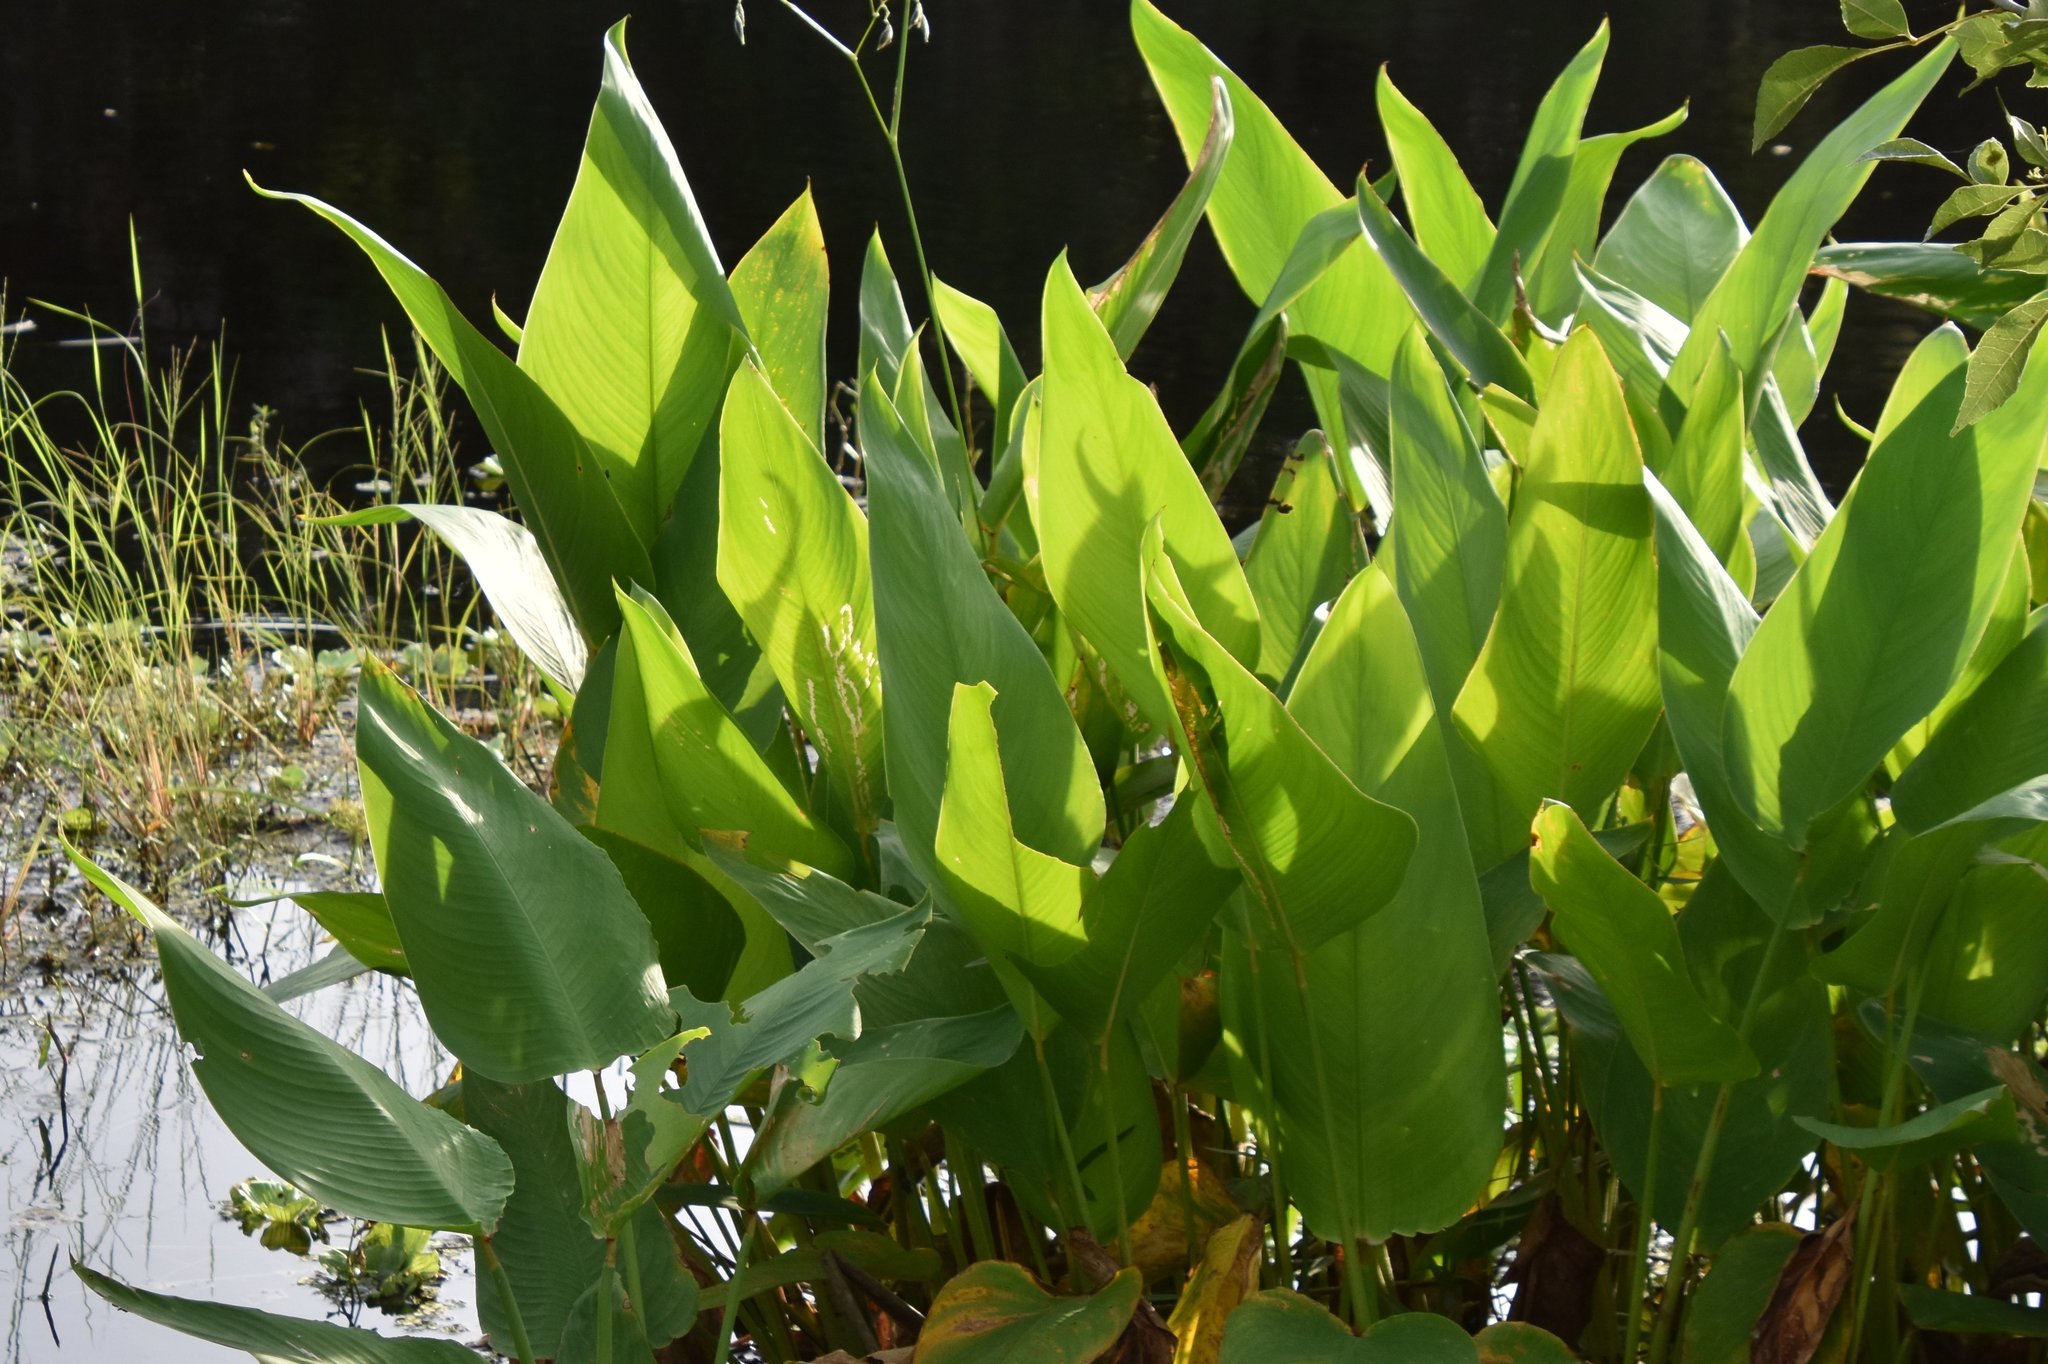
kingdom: Plantae
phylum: Tracheophyta
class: Liliopsida
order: Zingiberales
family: Marantaceae
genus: Thalia
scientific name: Thalia geniculata
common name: Arrowroot
